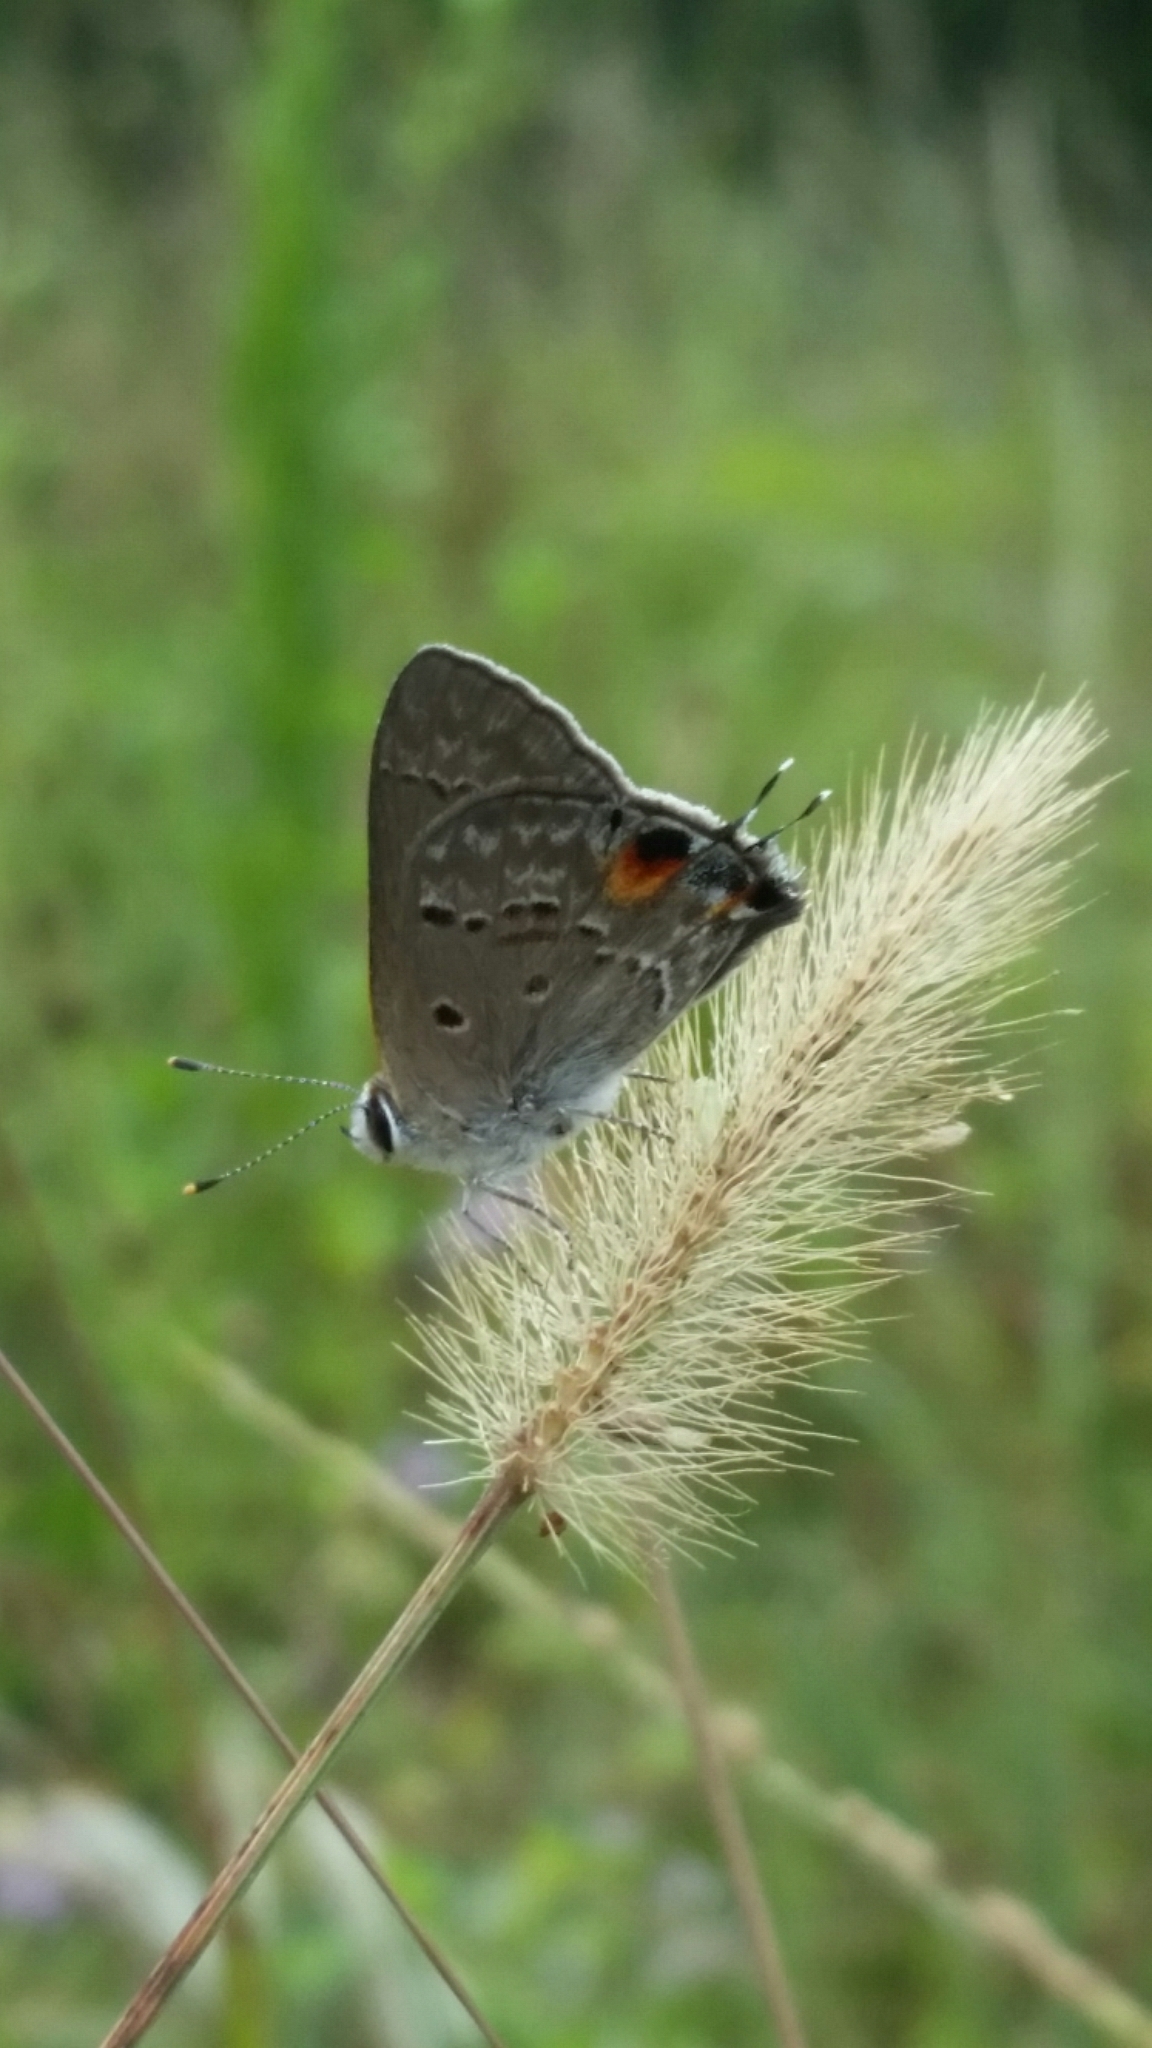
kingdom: Animalia
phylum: Arthropoda
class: Insecta
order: Lepidoptera
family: Lycaenidae
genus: Callicista
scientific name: Callicista columella
